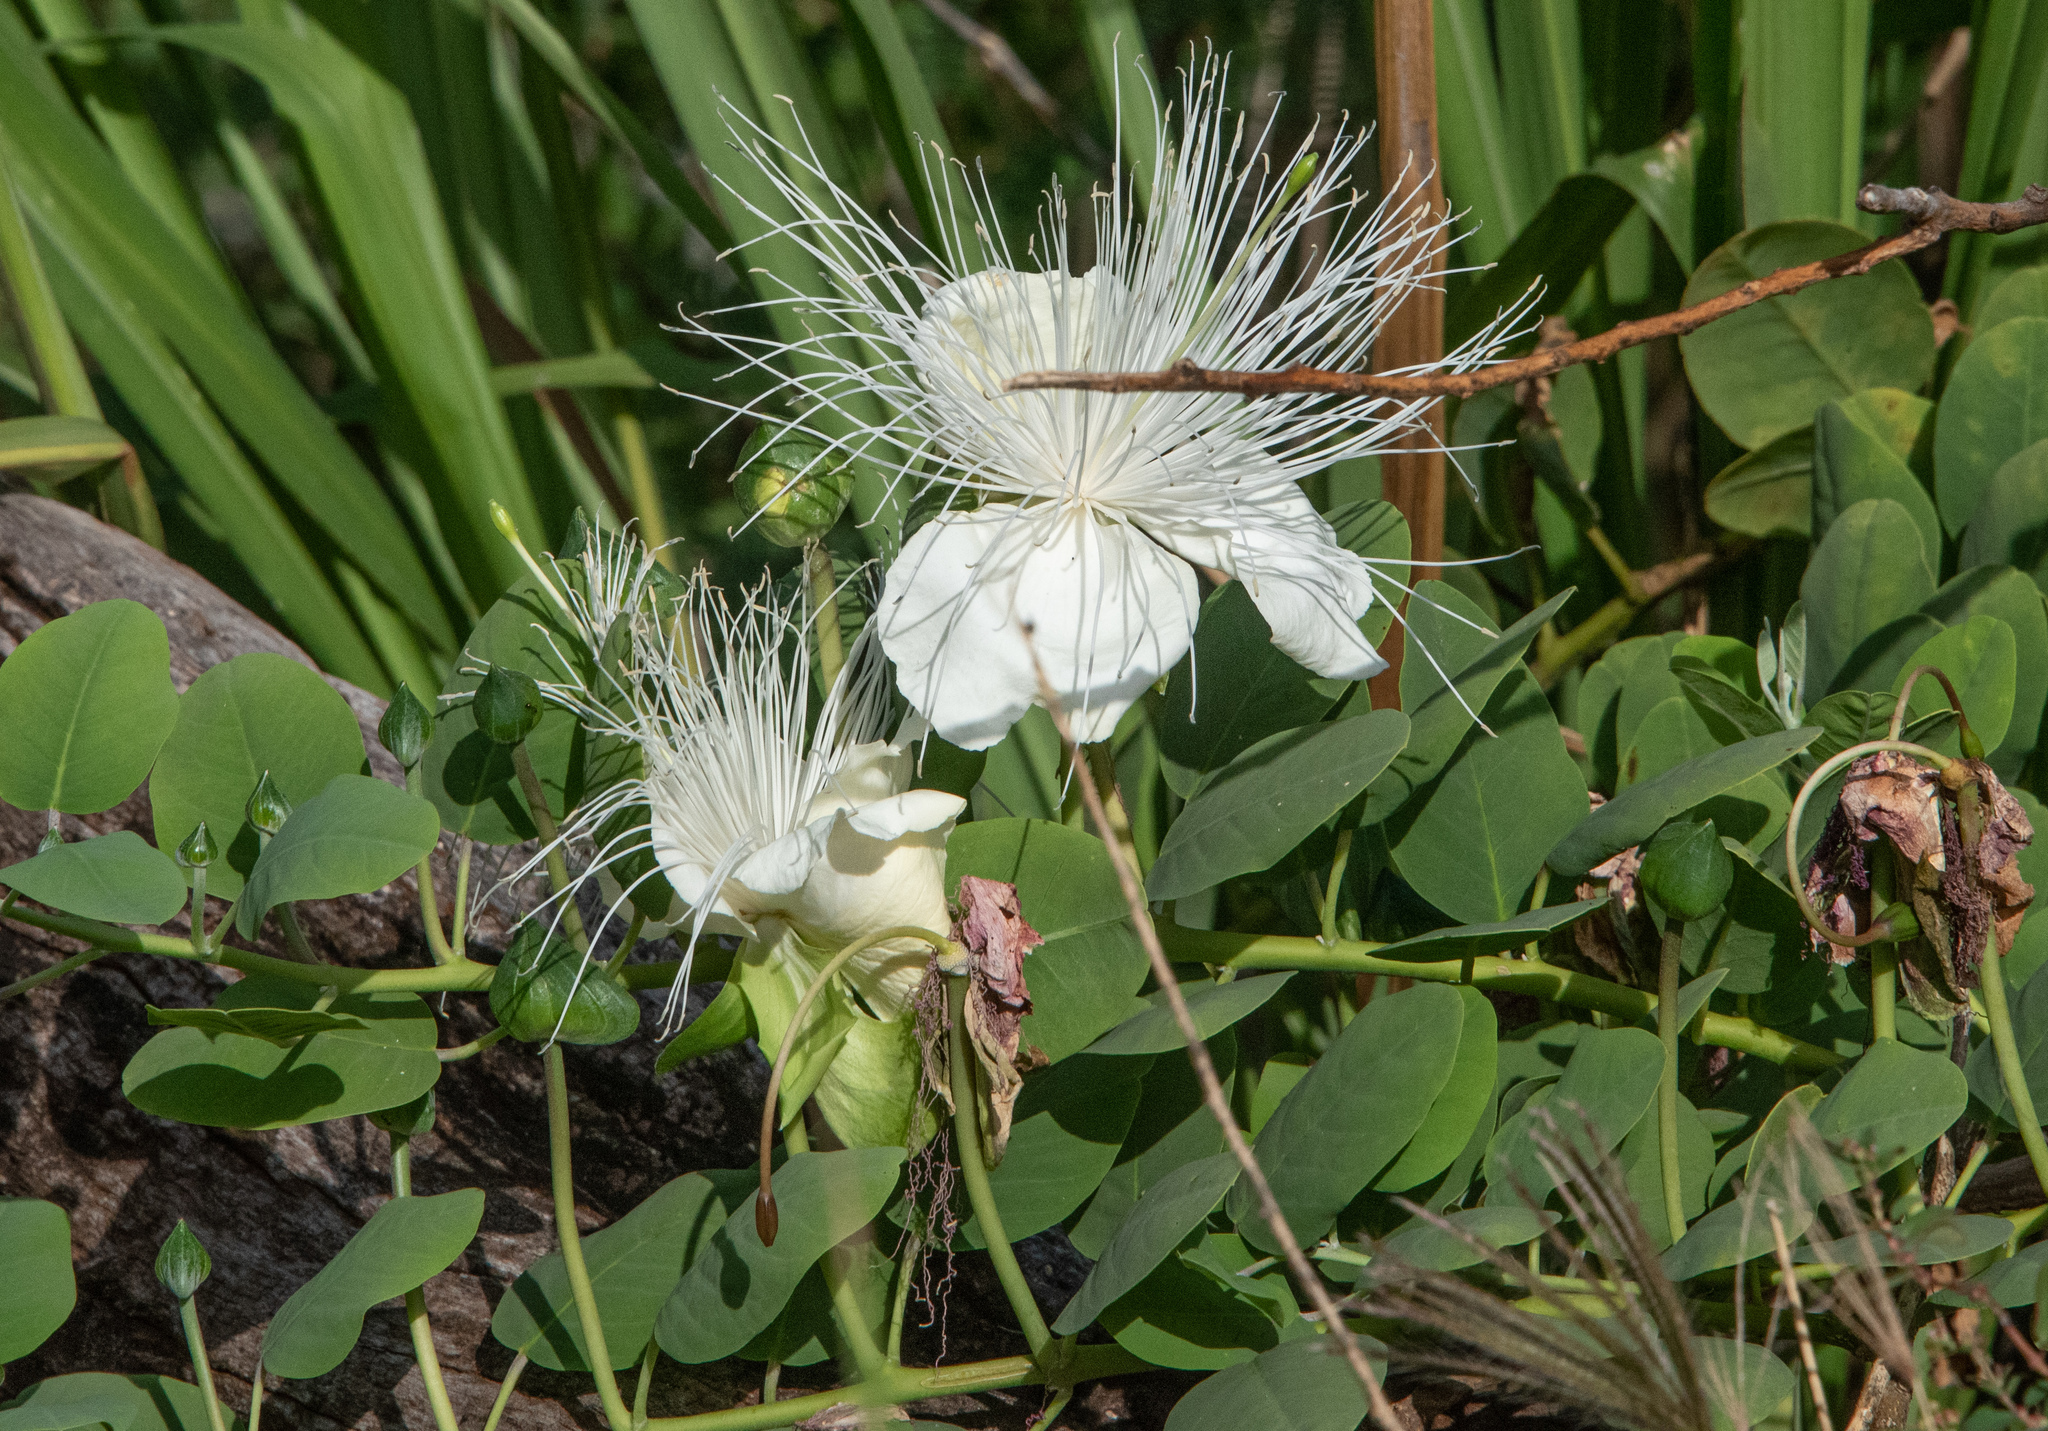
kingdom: Plantae
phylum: Tracheophyta
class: Magnoliopsida
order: Brassicales
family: Capparaceae
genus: Capparis
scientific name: Capparis spinosa
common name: Caper
